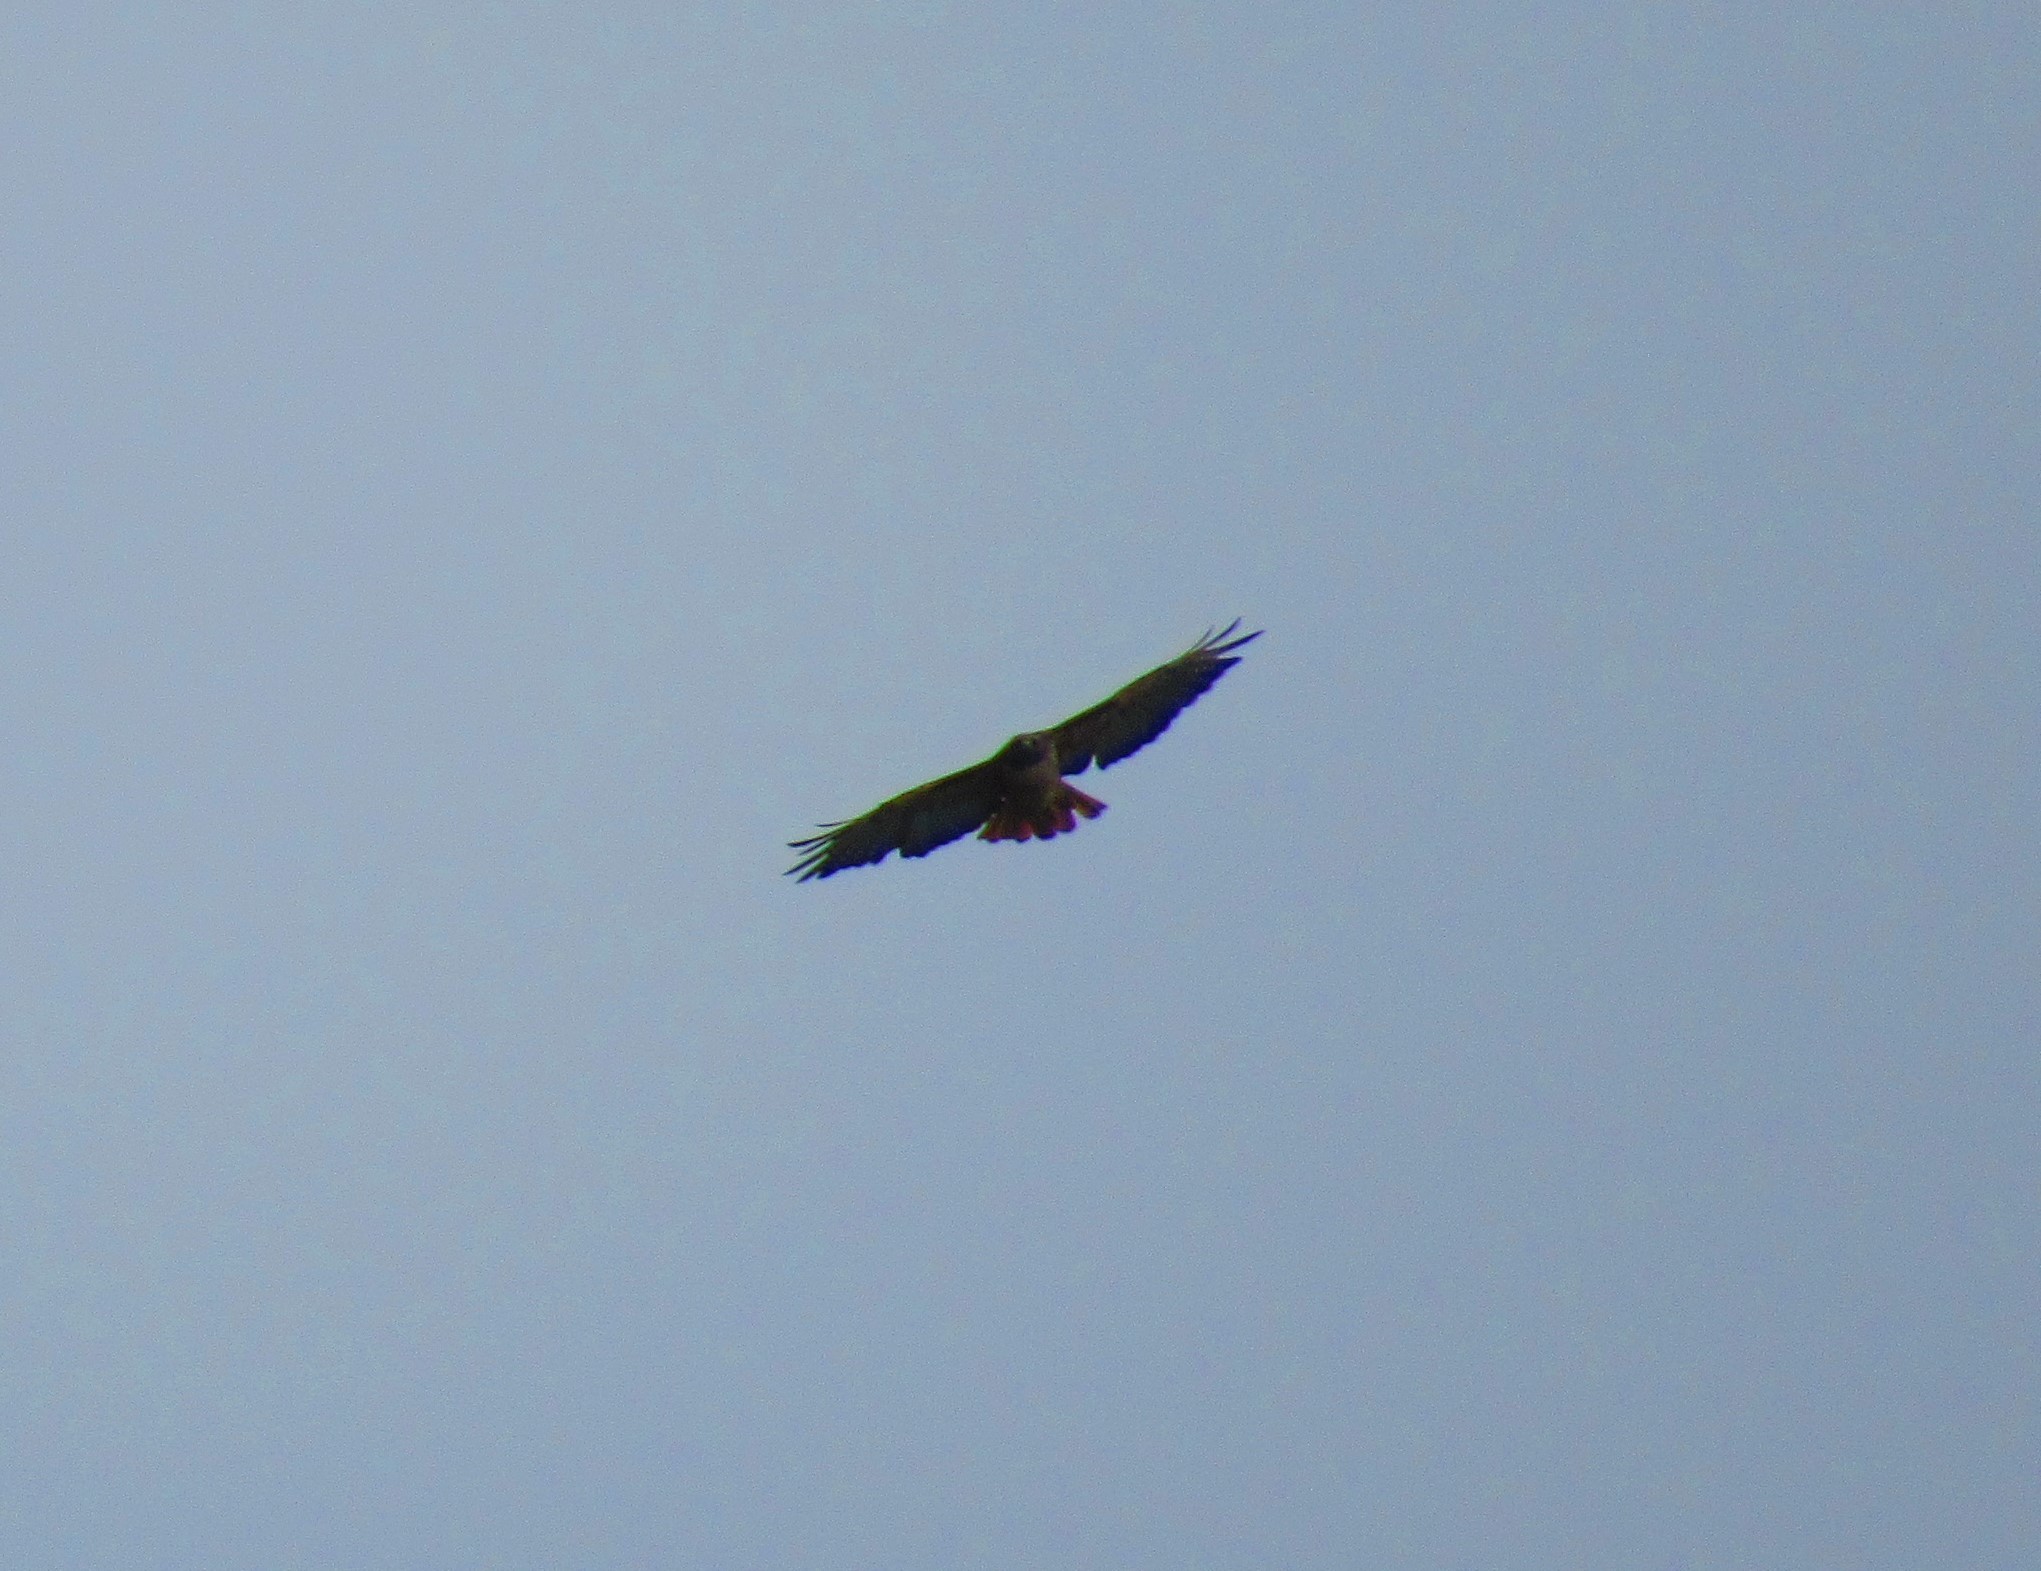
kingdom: Animalia
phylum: Chordata
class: Aves
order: Accipitriformes
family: Accipitridae
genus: Buteo
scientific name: Buteo jamaicensis
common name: Red-tailed hawk
